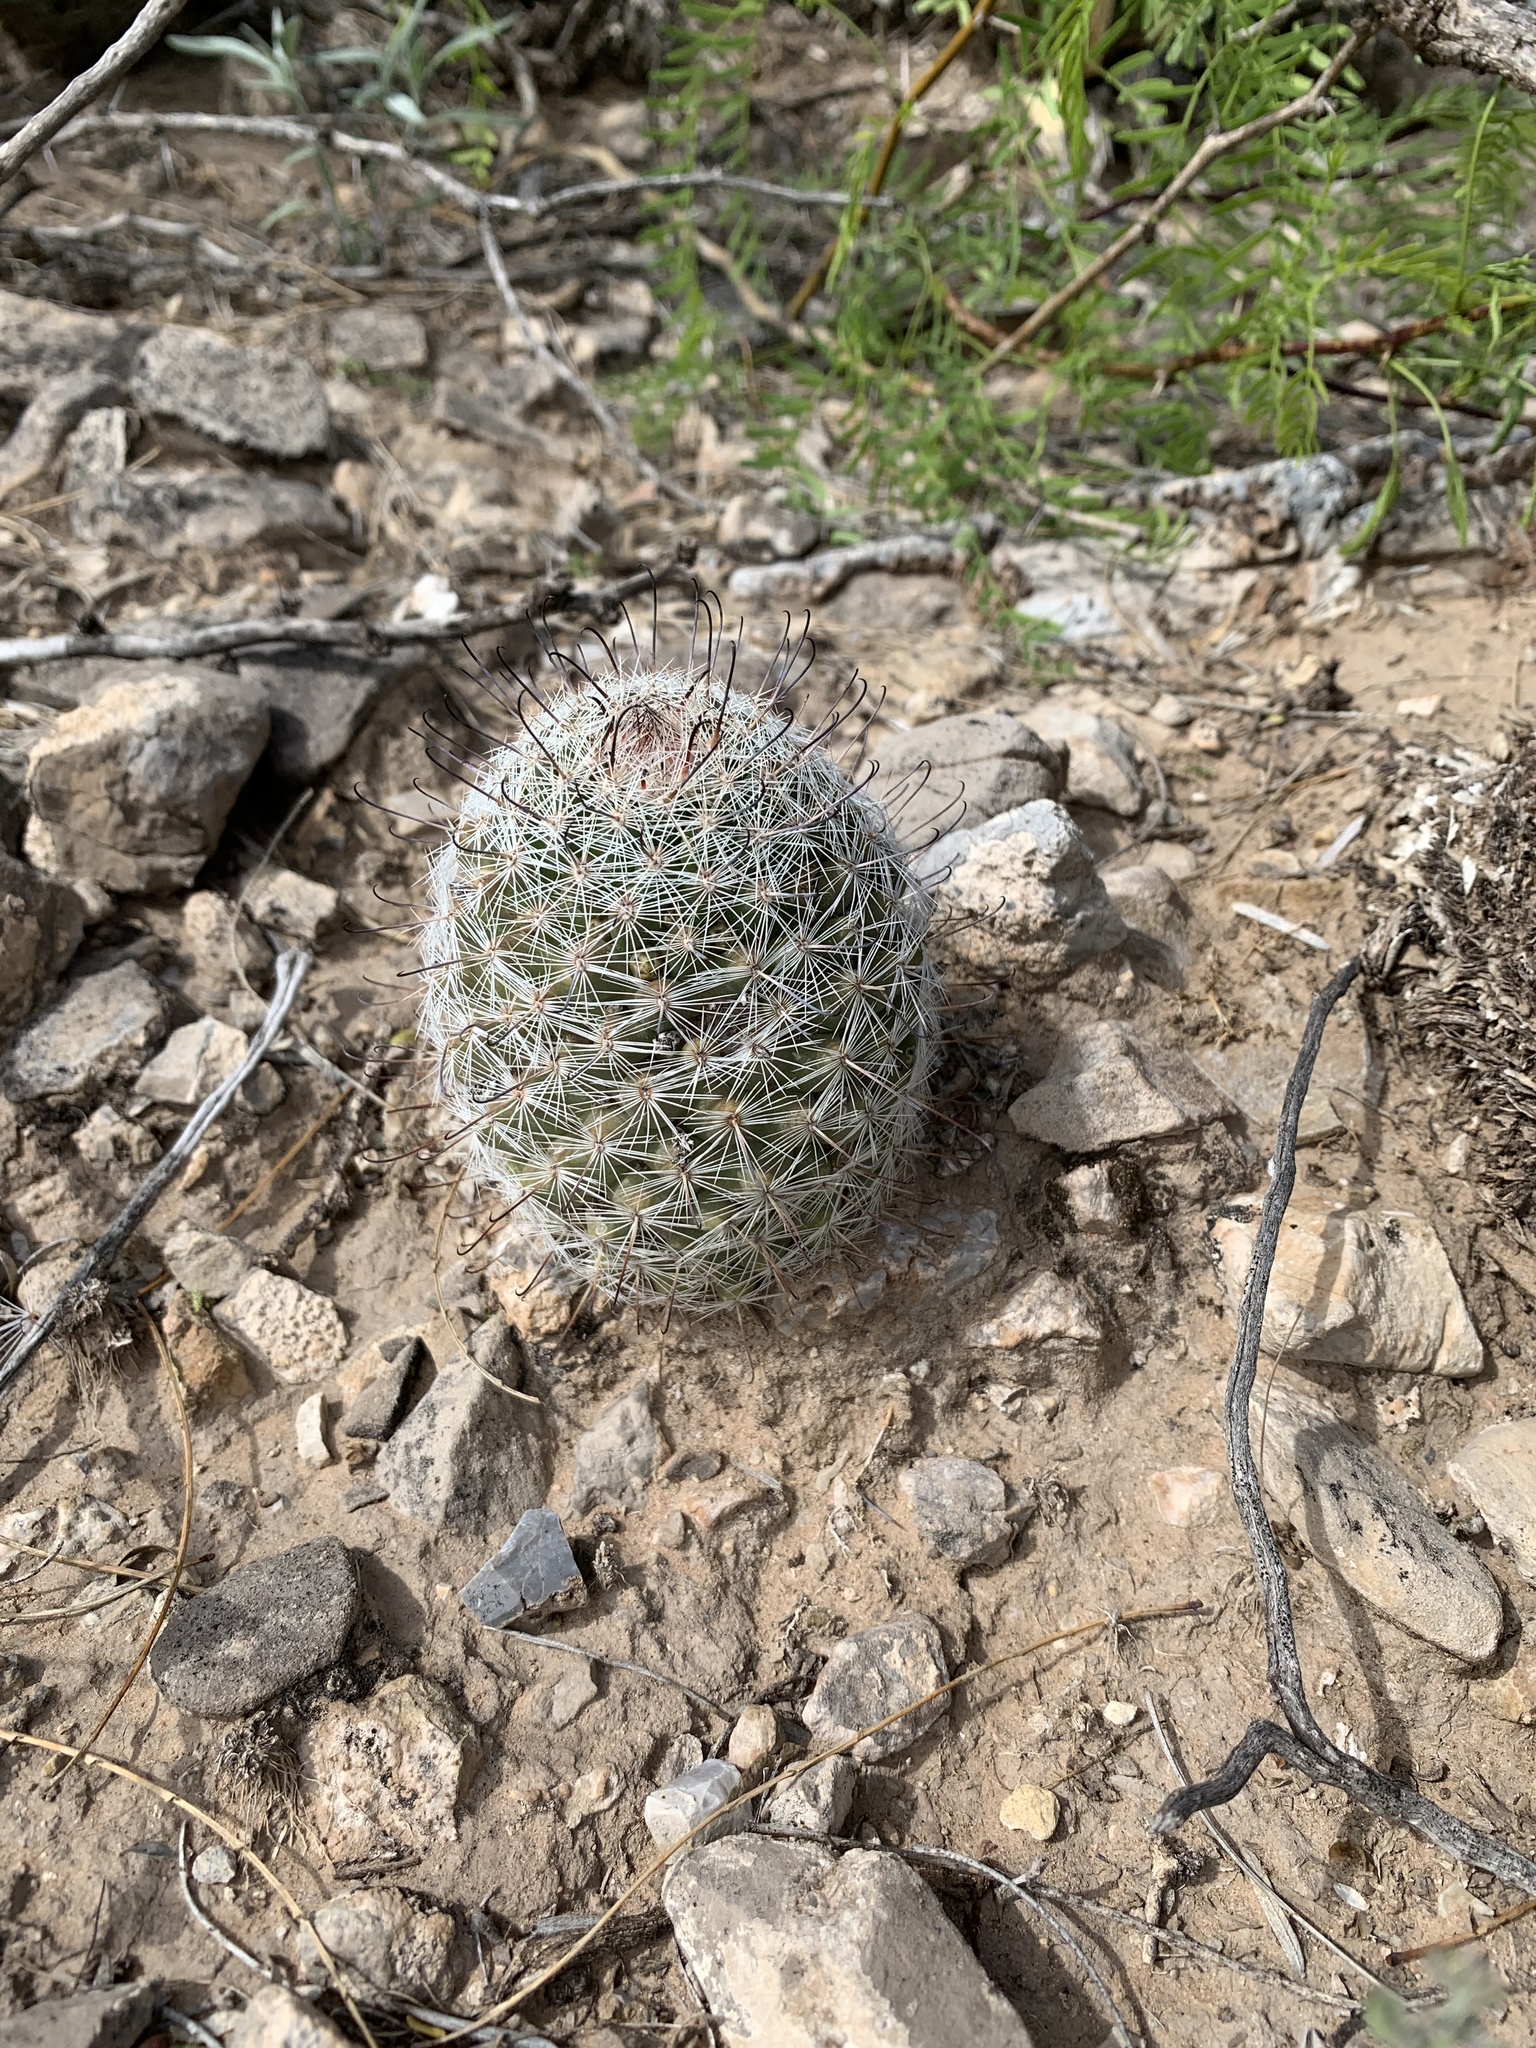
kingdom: Plantae
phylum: Tracheophyta
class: Magnoliopsida
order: Caryophyllales
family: Cactaceae
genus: Cochemiea
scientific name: Cochemiea grahamii
